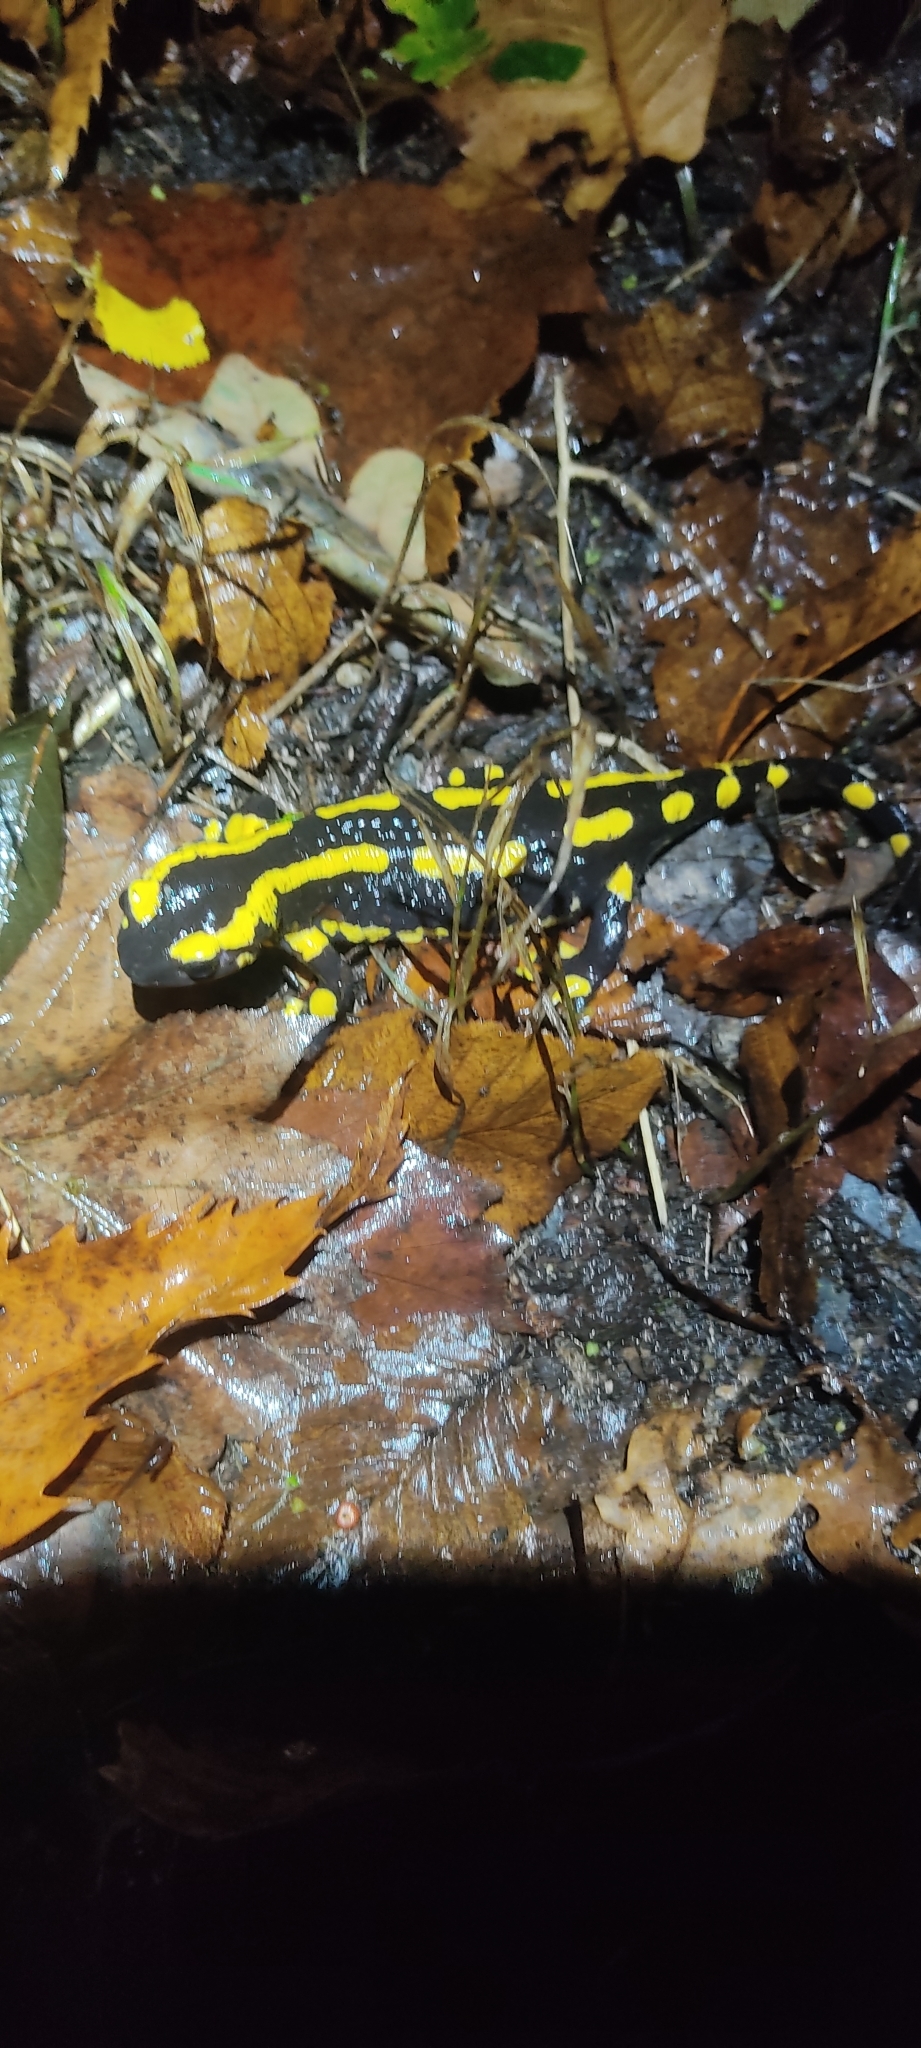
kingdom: Animalia
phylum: Chordata
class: Amphibia
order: Caudata
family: Salamandridae
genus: Salamandra
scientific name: Salamandra salamandra
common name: Fire salamander
